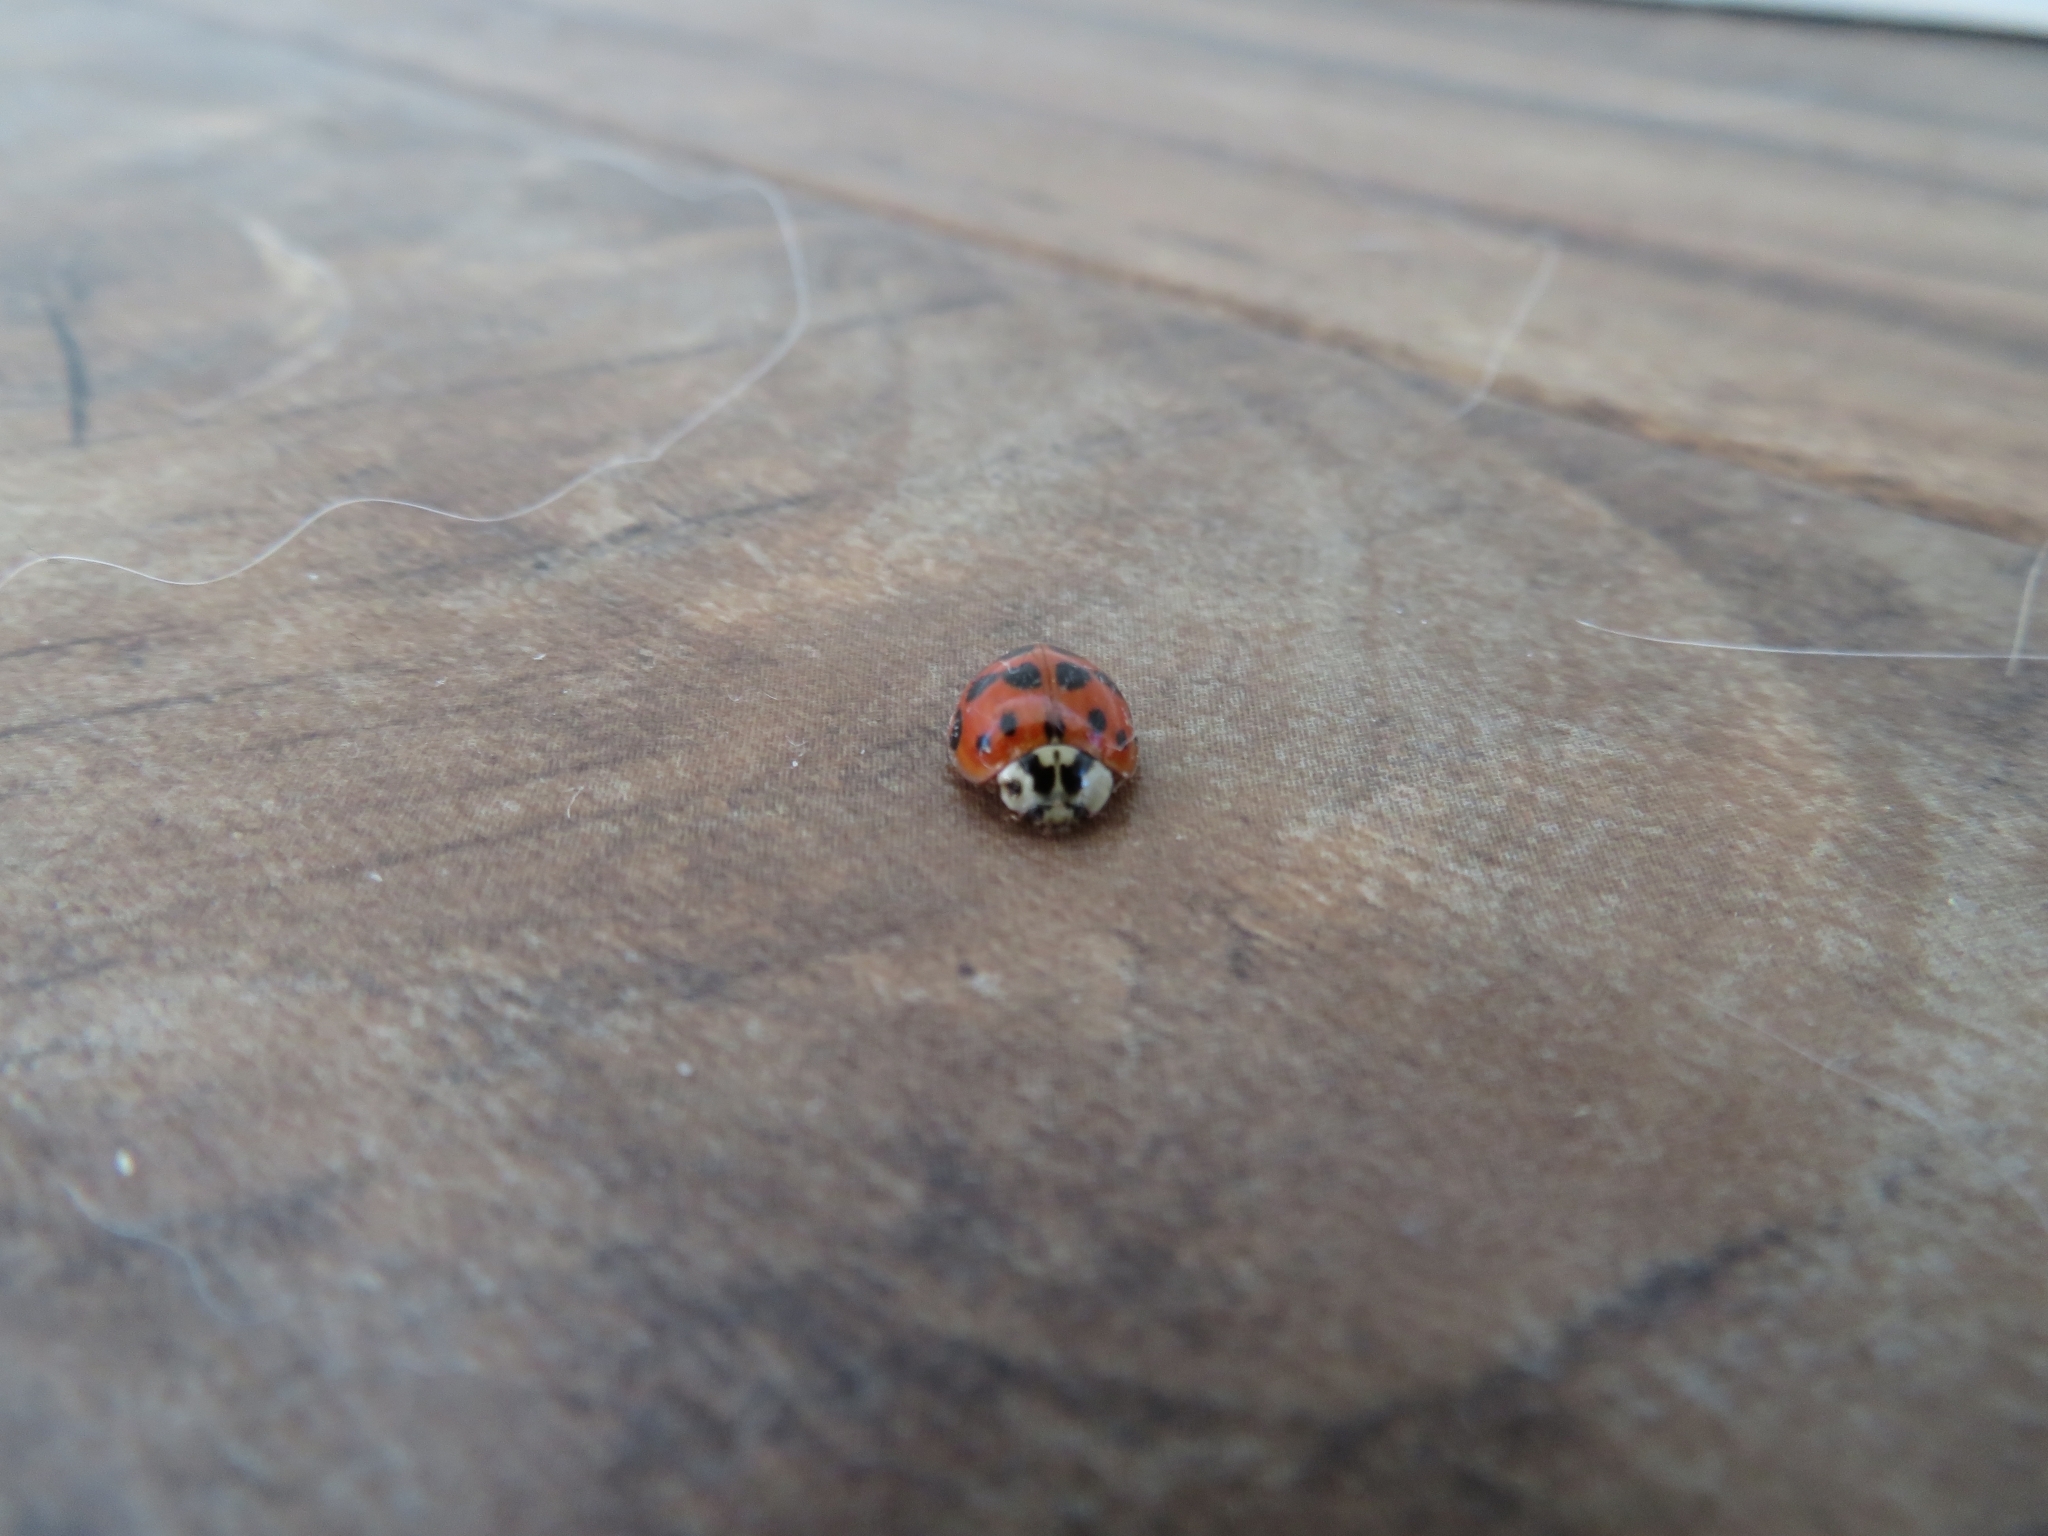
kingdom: Animalia
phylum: Arthropoda
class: Insecta
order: Coleoptera
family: Coccinellidae
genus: Harmonia
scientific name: Harmonia axyridis
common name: Harlequin ladybird
